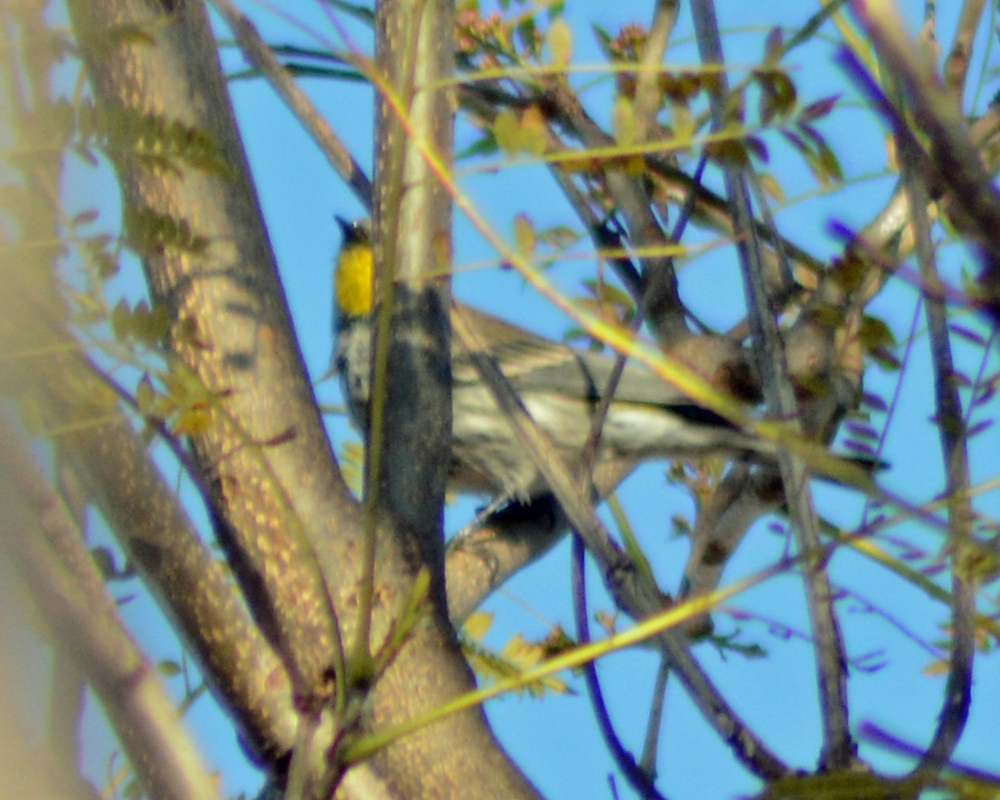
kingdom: Animalia
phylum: Chordata
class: Aves
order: Passeriformes
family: Parulidae
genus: Setophaga
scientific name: Setophaga coronata
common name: Myrtle warbler
